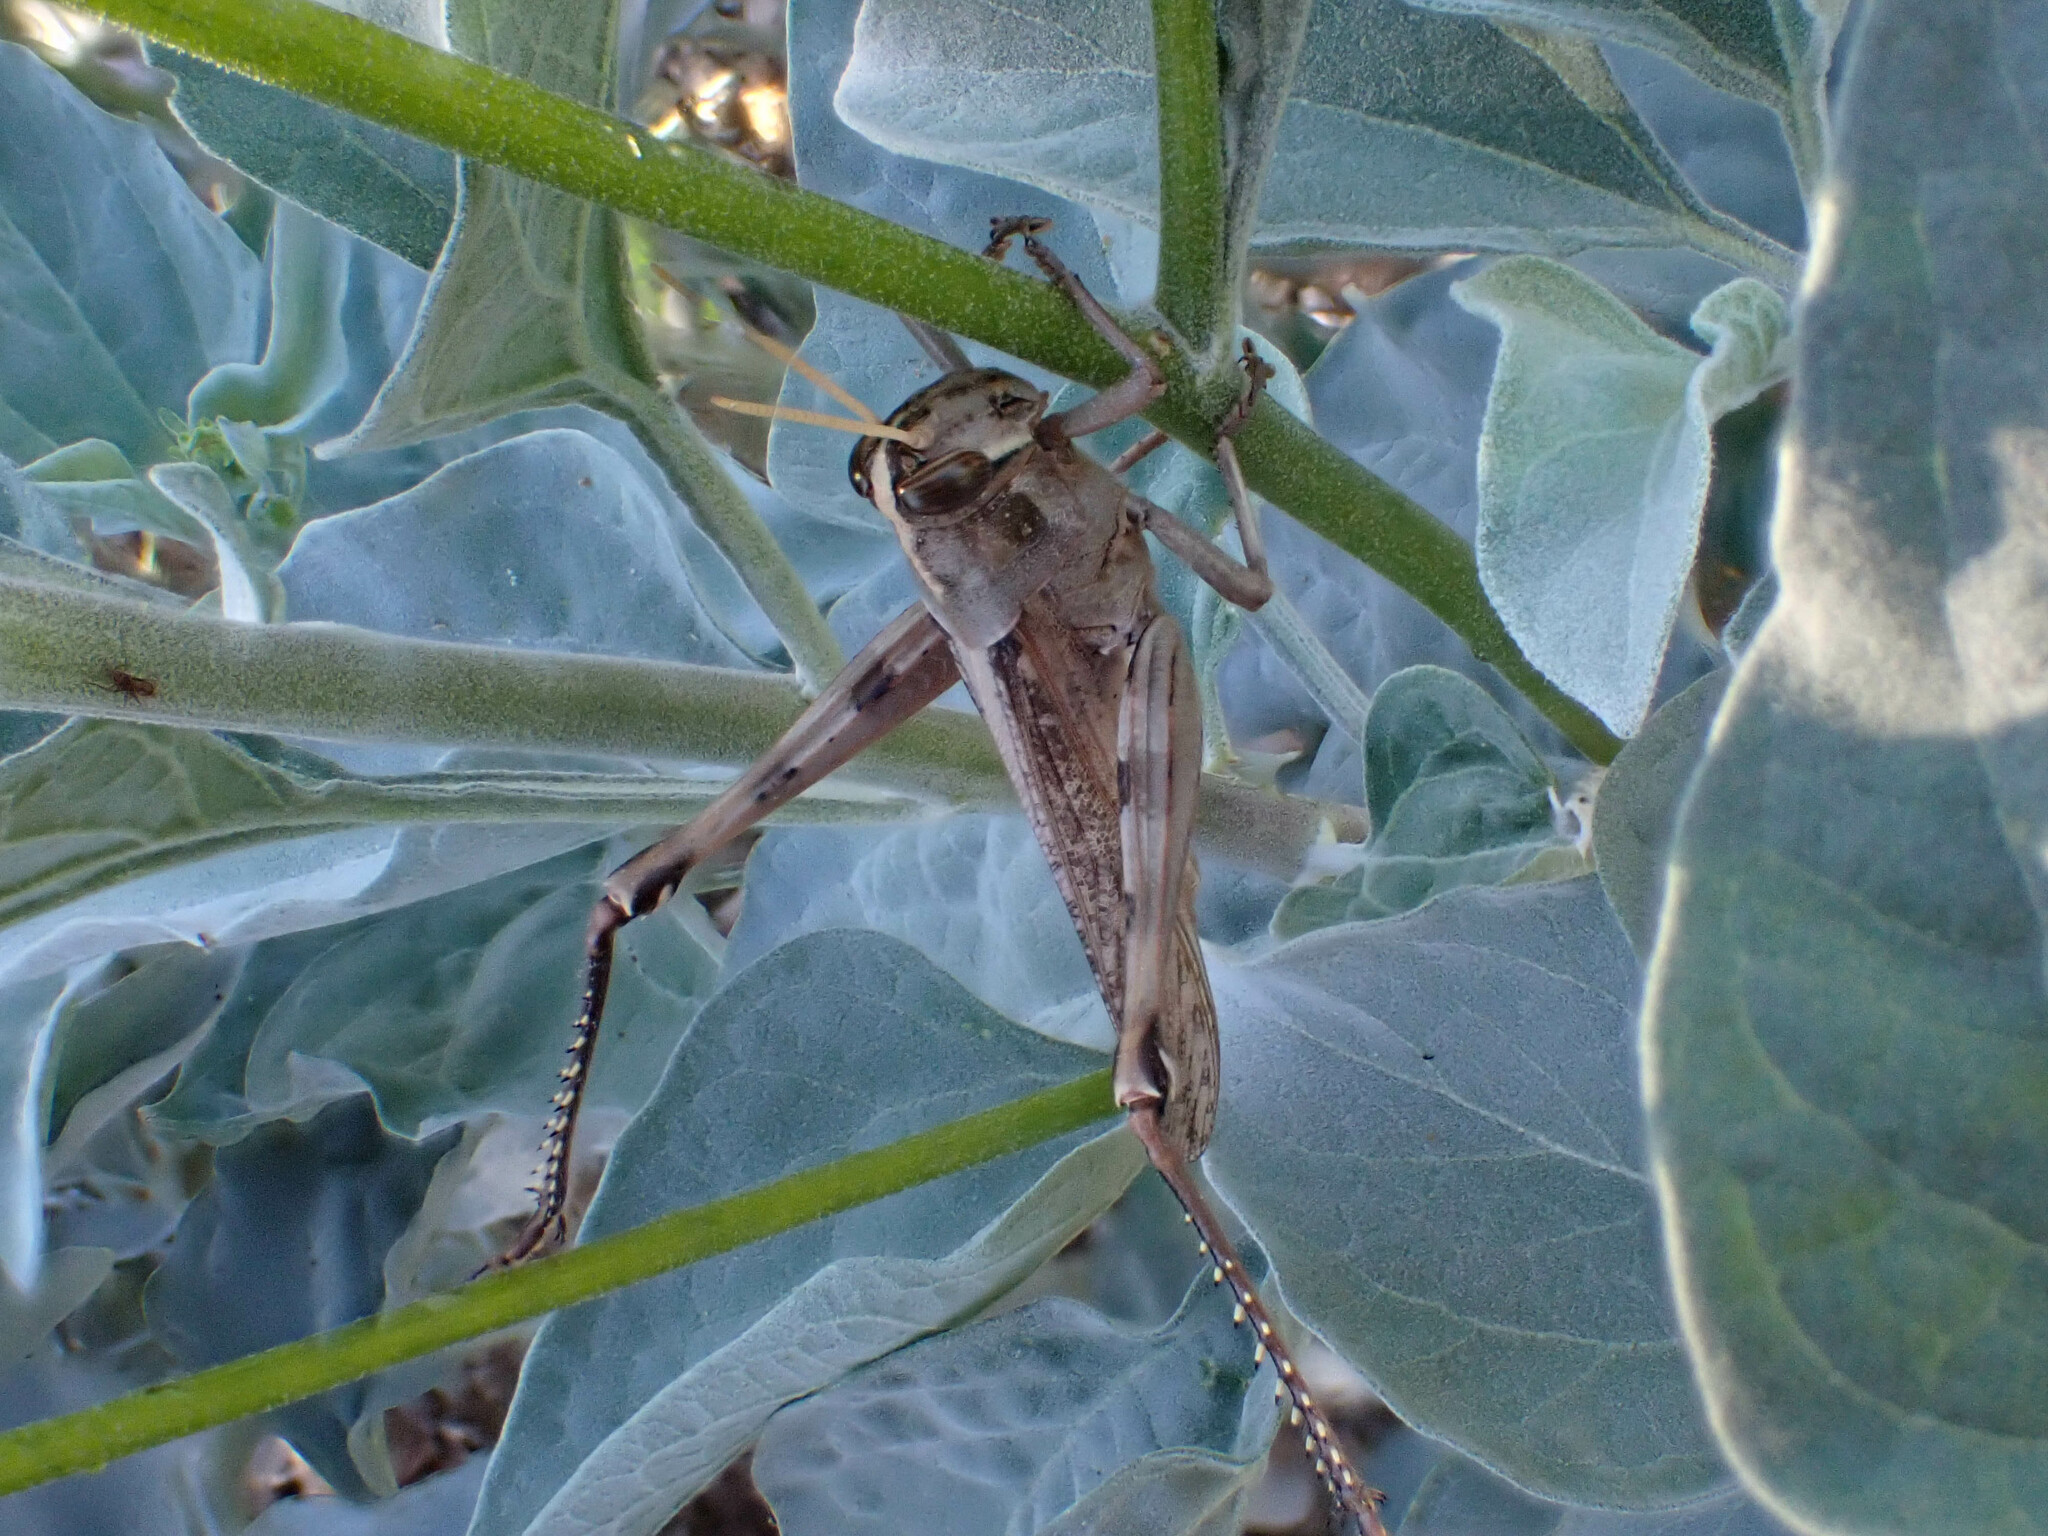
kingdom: Animalia
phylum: Arthropoda
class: Insecta
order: Orthoptera
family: Acrididae
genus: Schistocerca
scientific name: Schistocerca nitens
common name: Vagrant grasshopper
